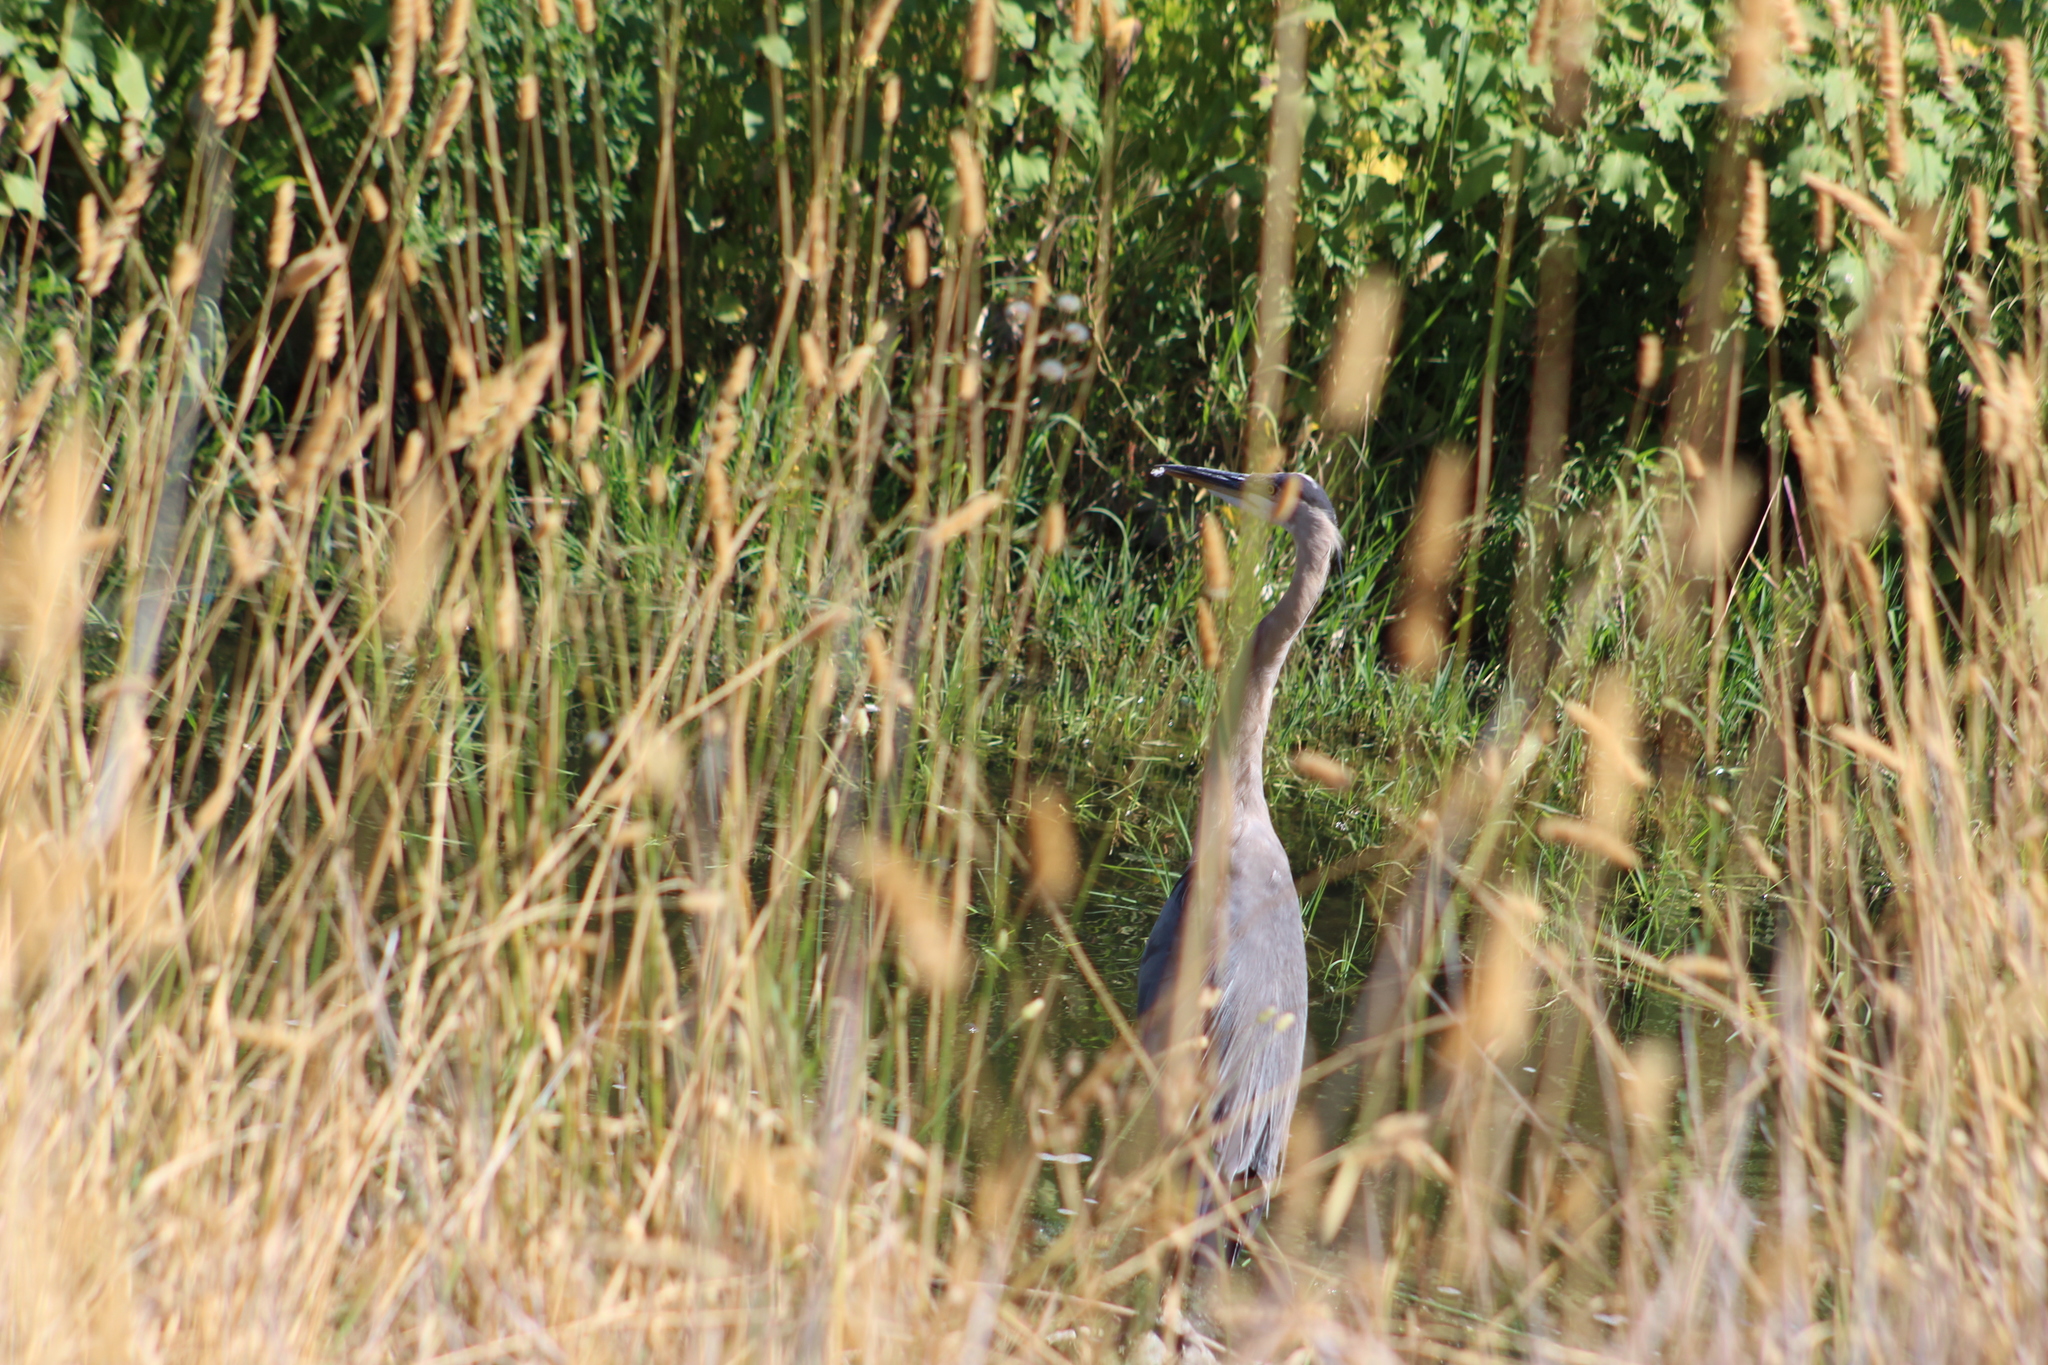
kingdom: Animalia
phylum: Chordata
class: Aves
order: Pelecaniformes
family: Ardeidae
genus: Ardea
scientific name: Ardea herodias
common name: Great blue heron
